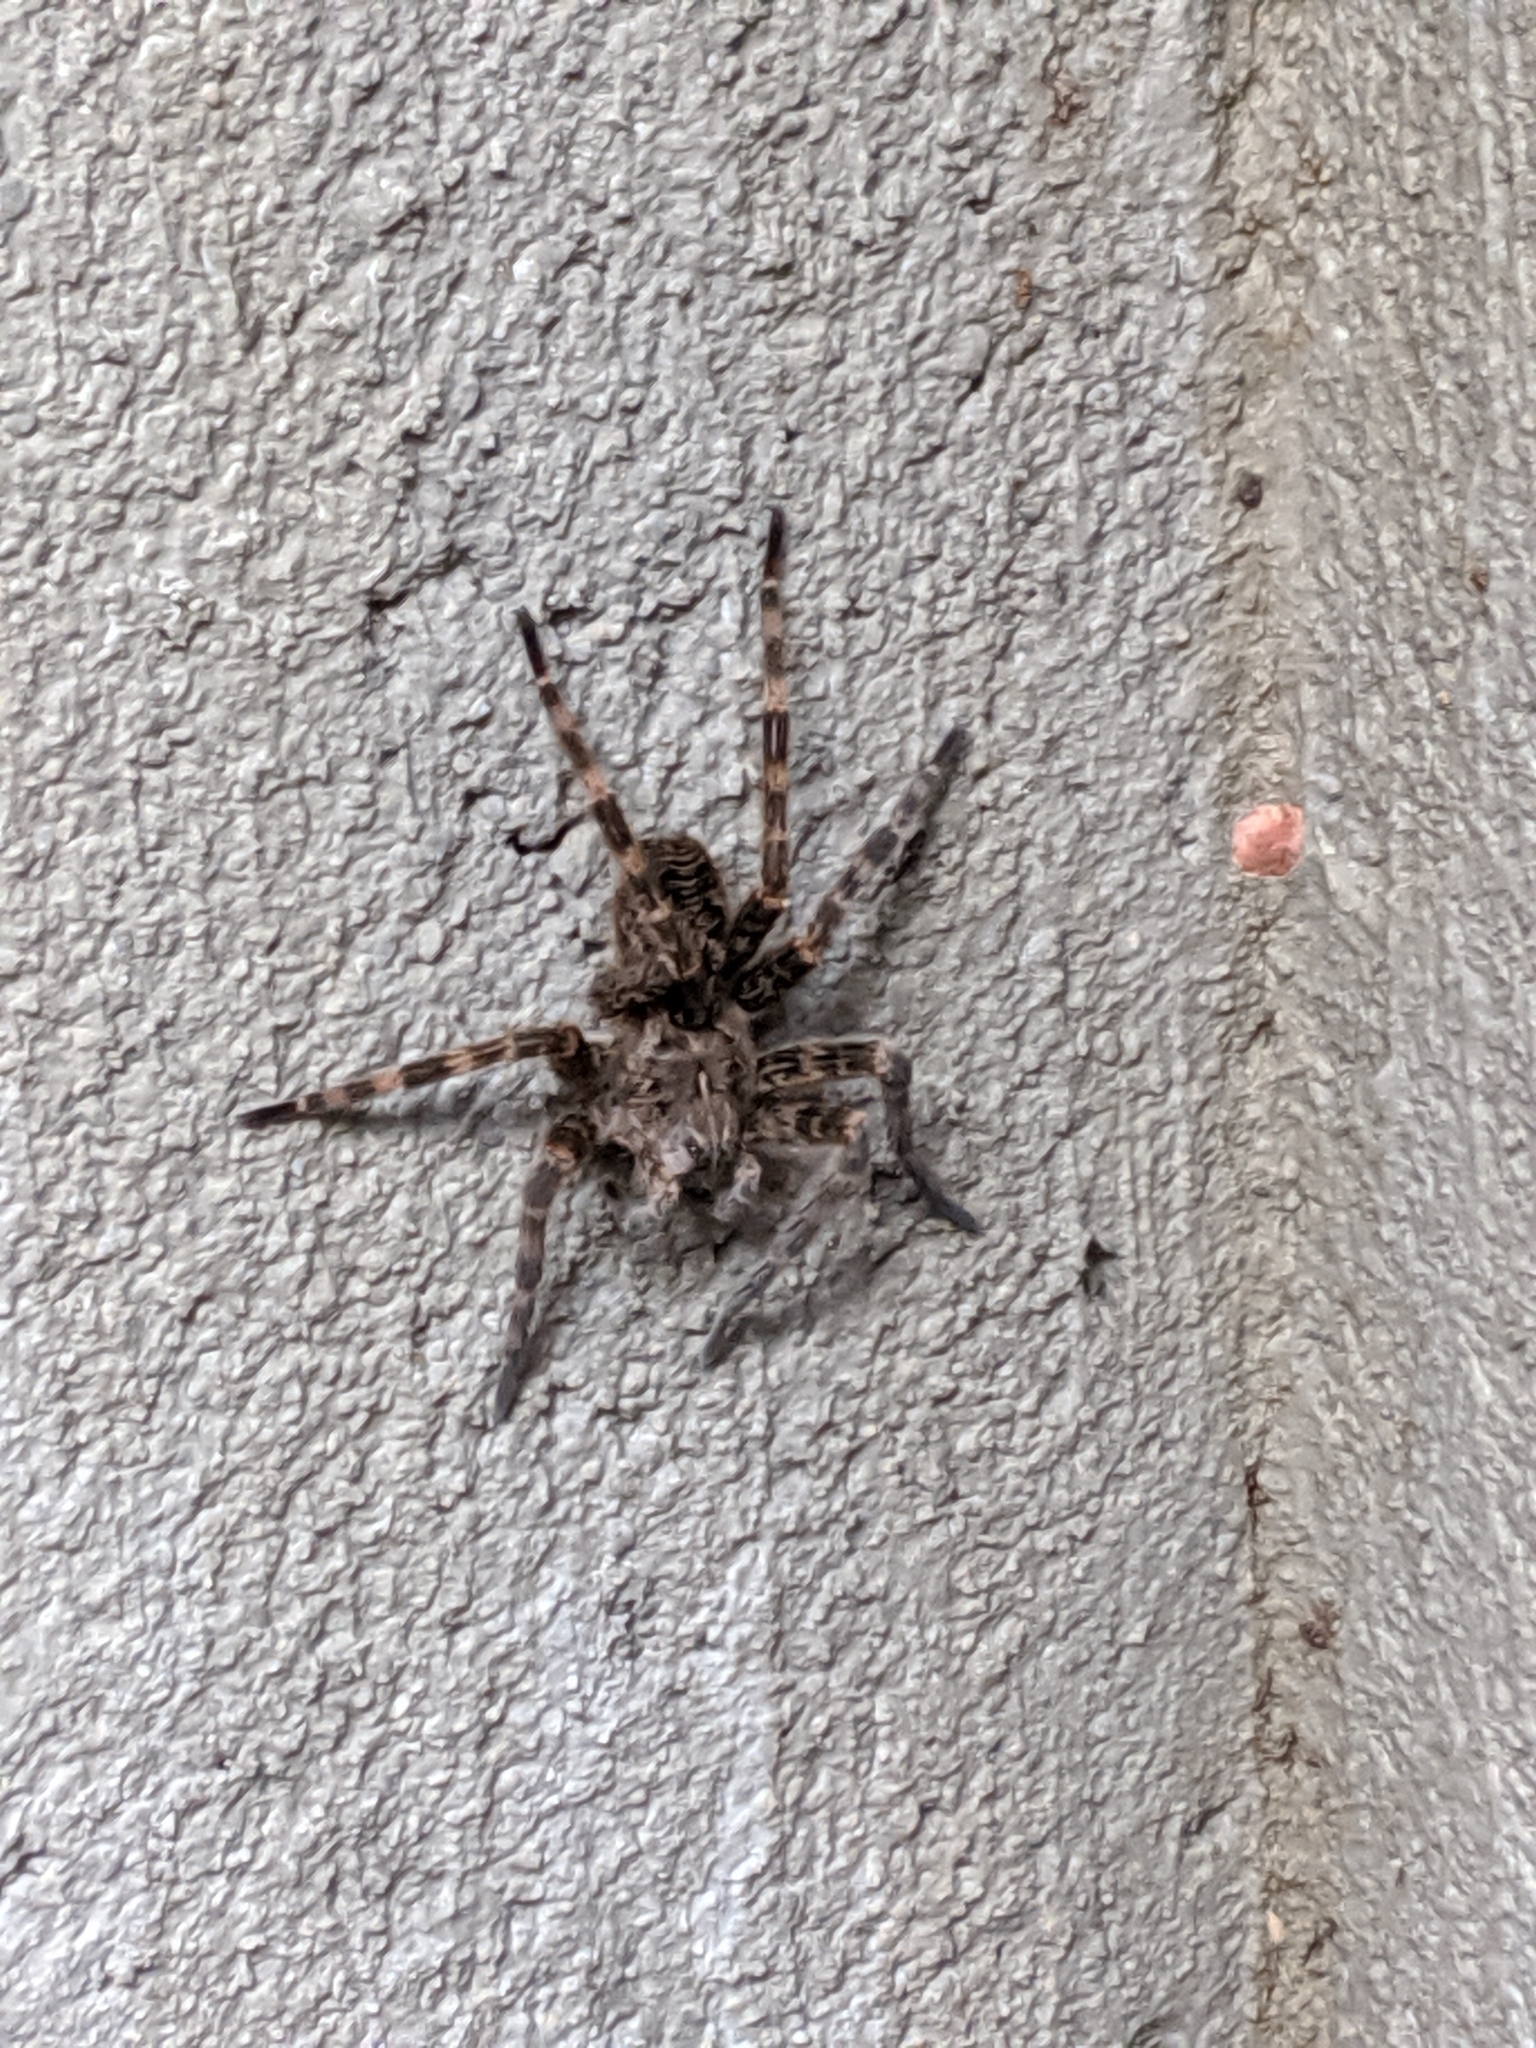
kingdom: Animalia
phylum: Arthropoda
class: Arachnida
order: Araneae
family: Pisauridae
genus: Dolomedes
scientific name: Dolomedes tenebrosus
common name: Dark fishing spider
